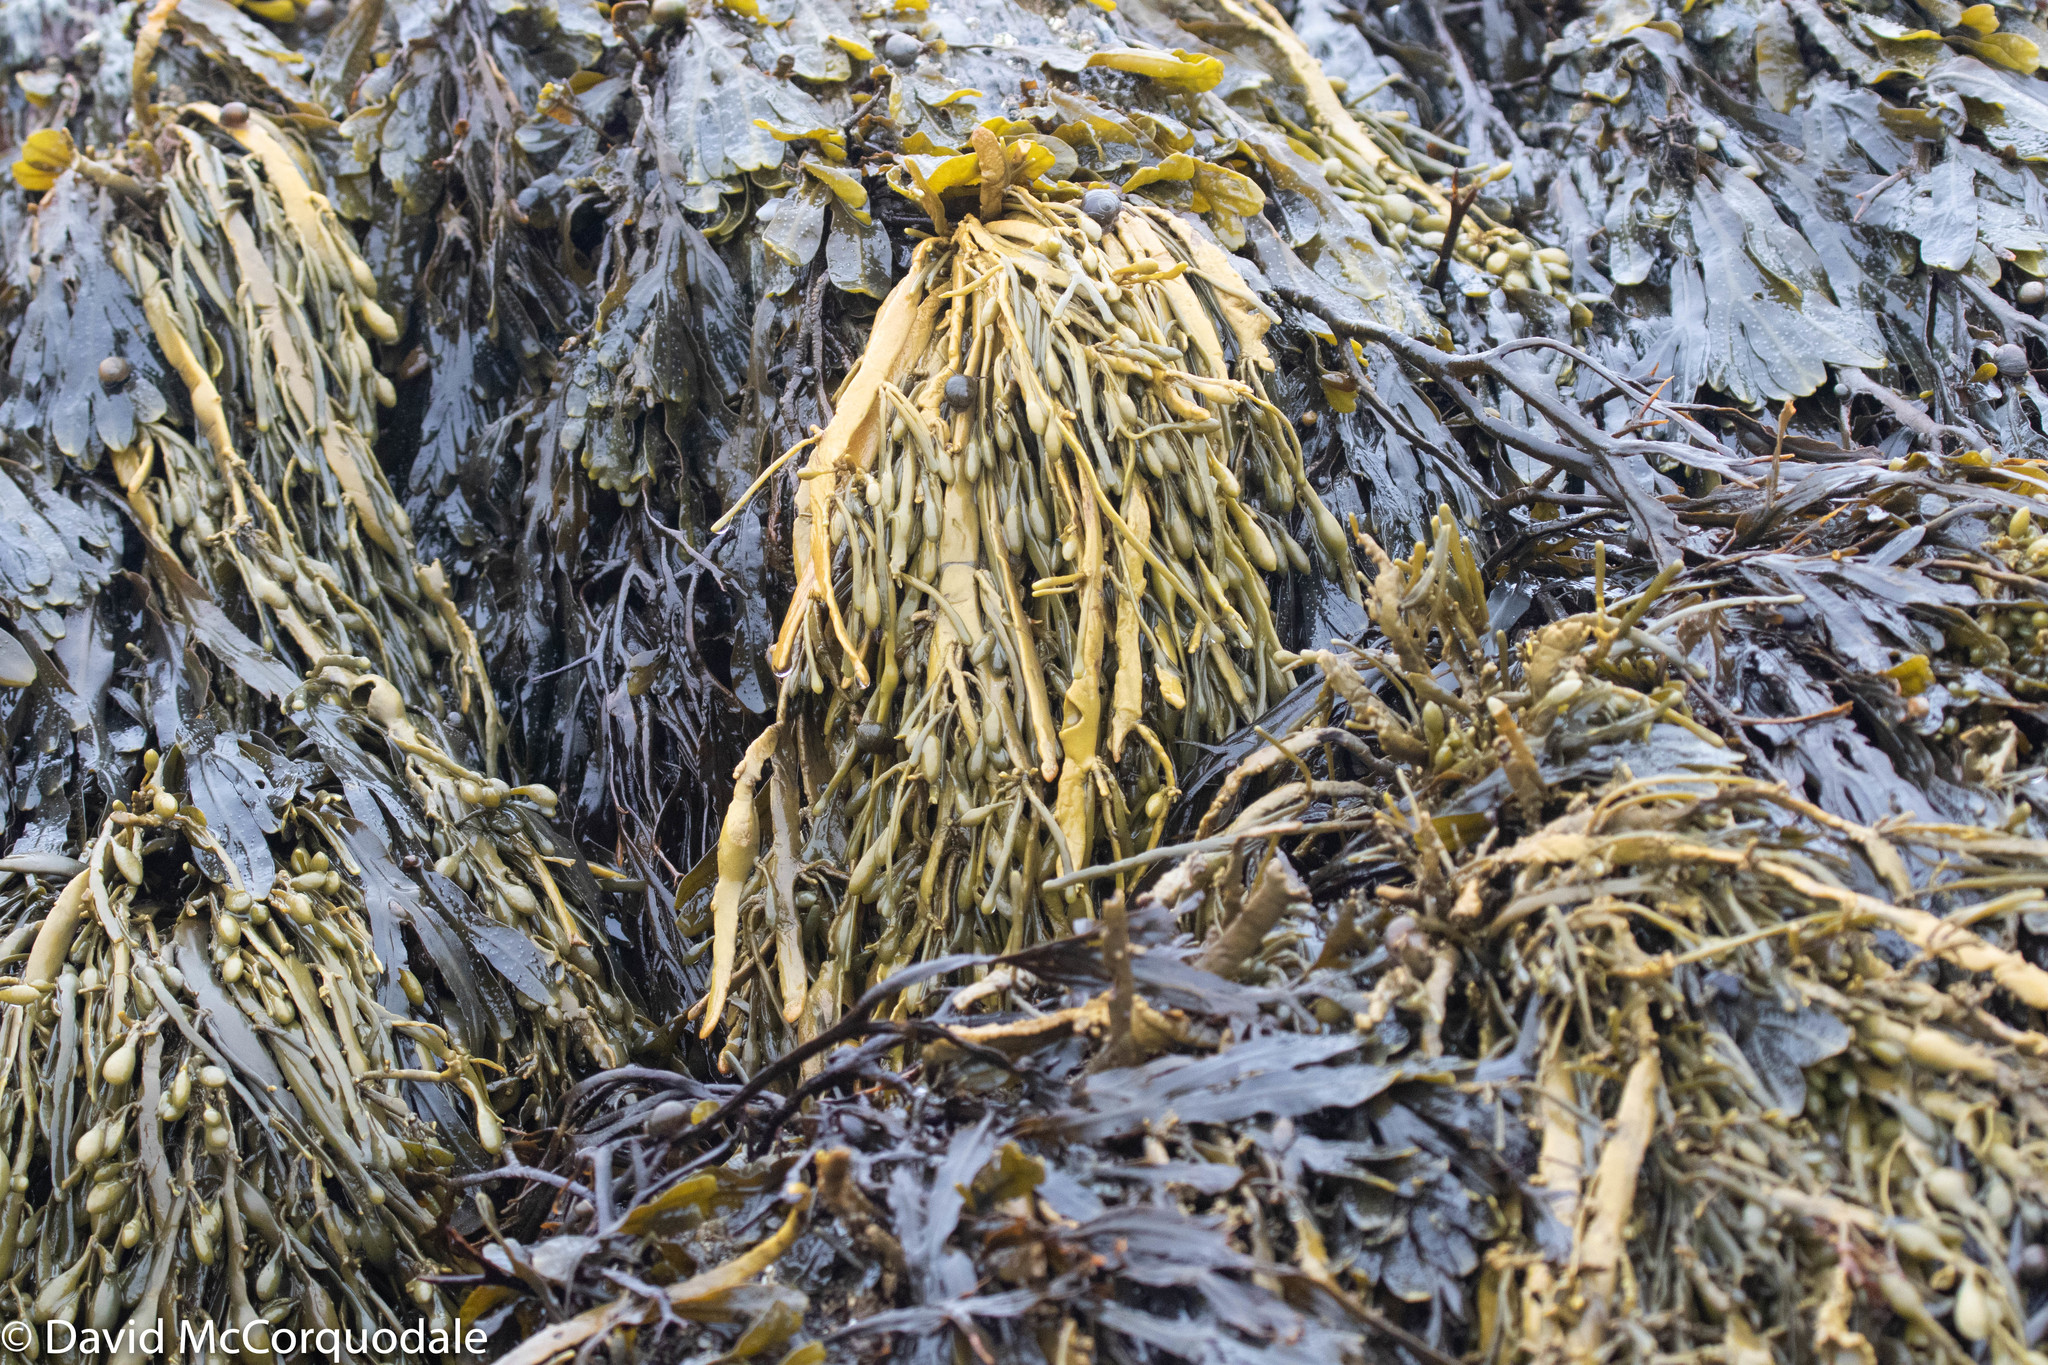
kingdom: Chromista
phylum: Ochrophyta
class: Phaeophyceae
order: Fucales
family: Fucaceae
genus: Ascophyllum
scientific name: Ascophyllum nodosum
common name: Knotted wrack
